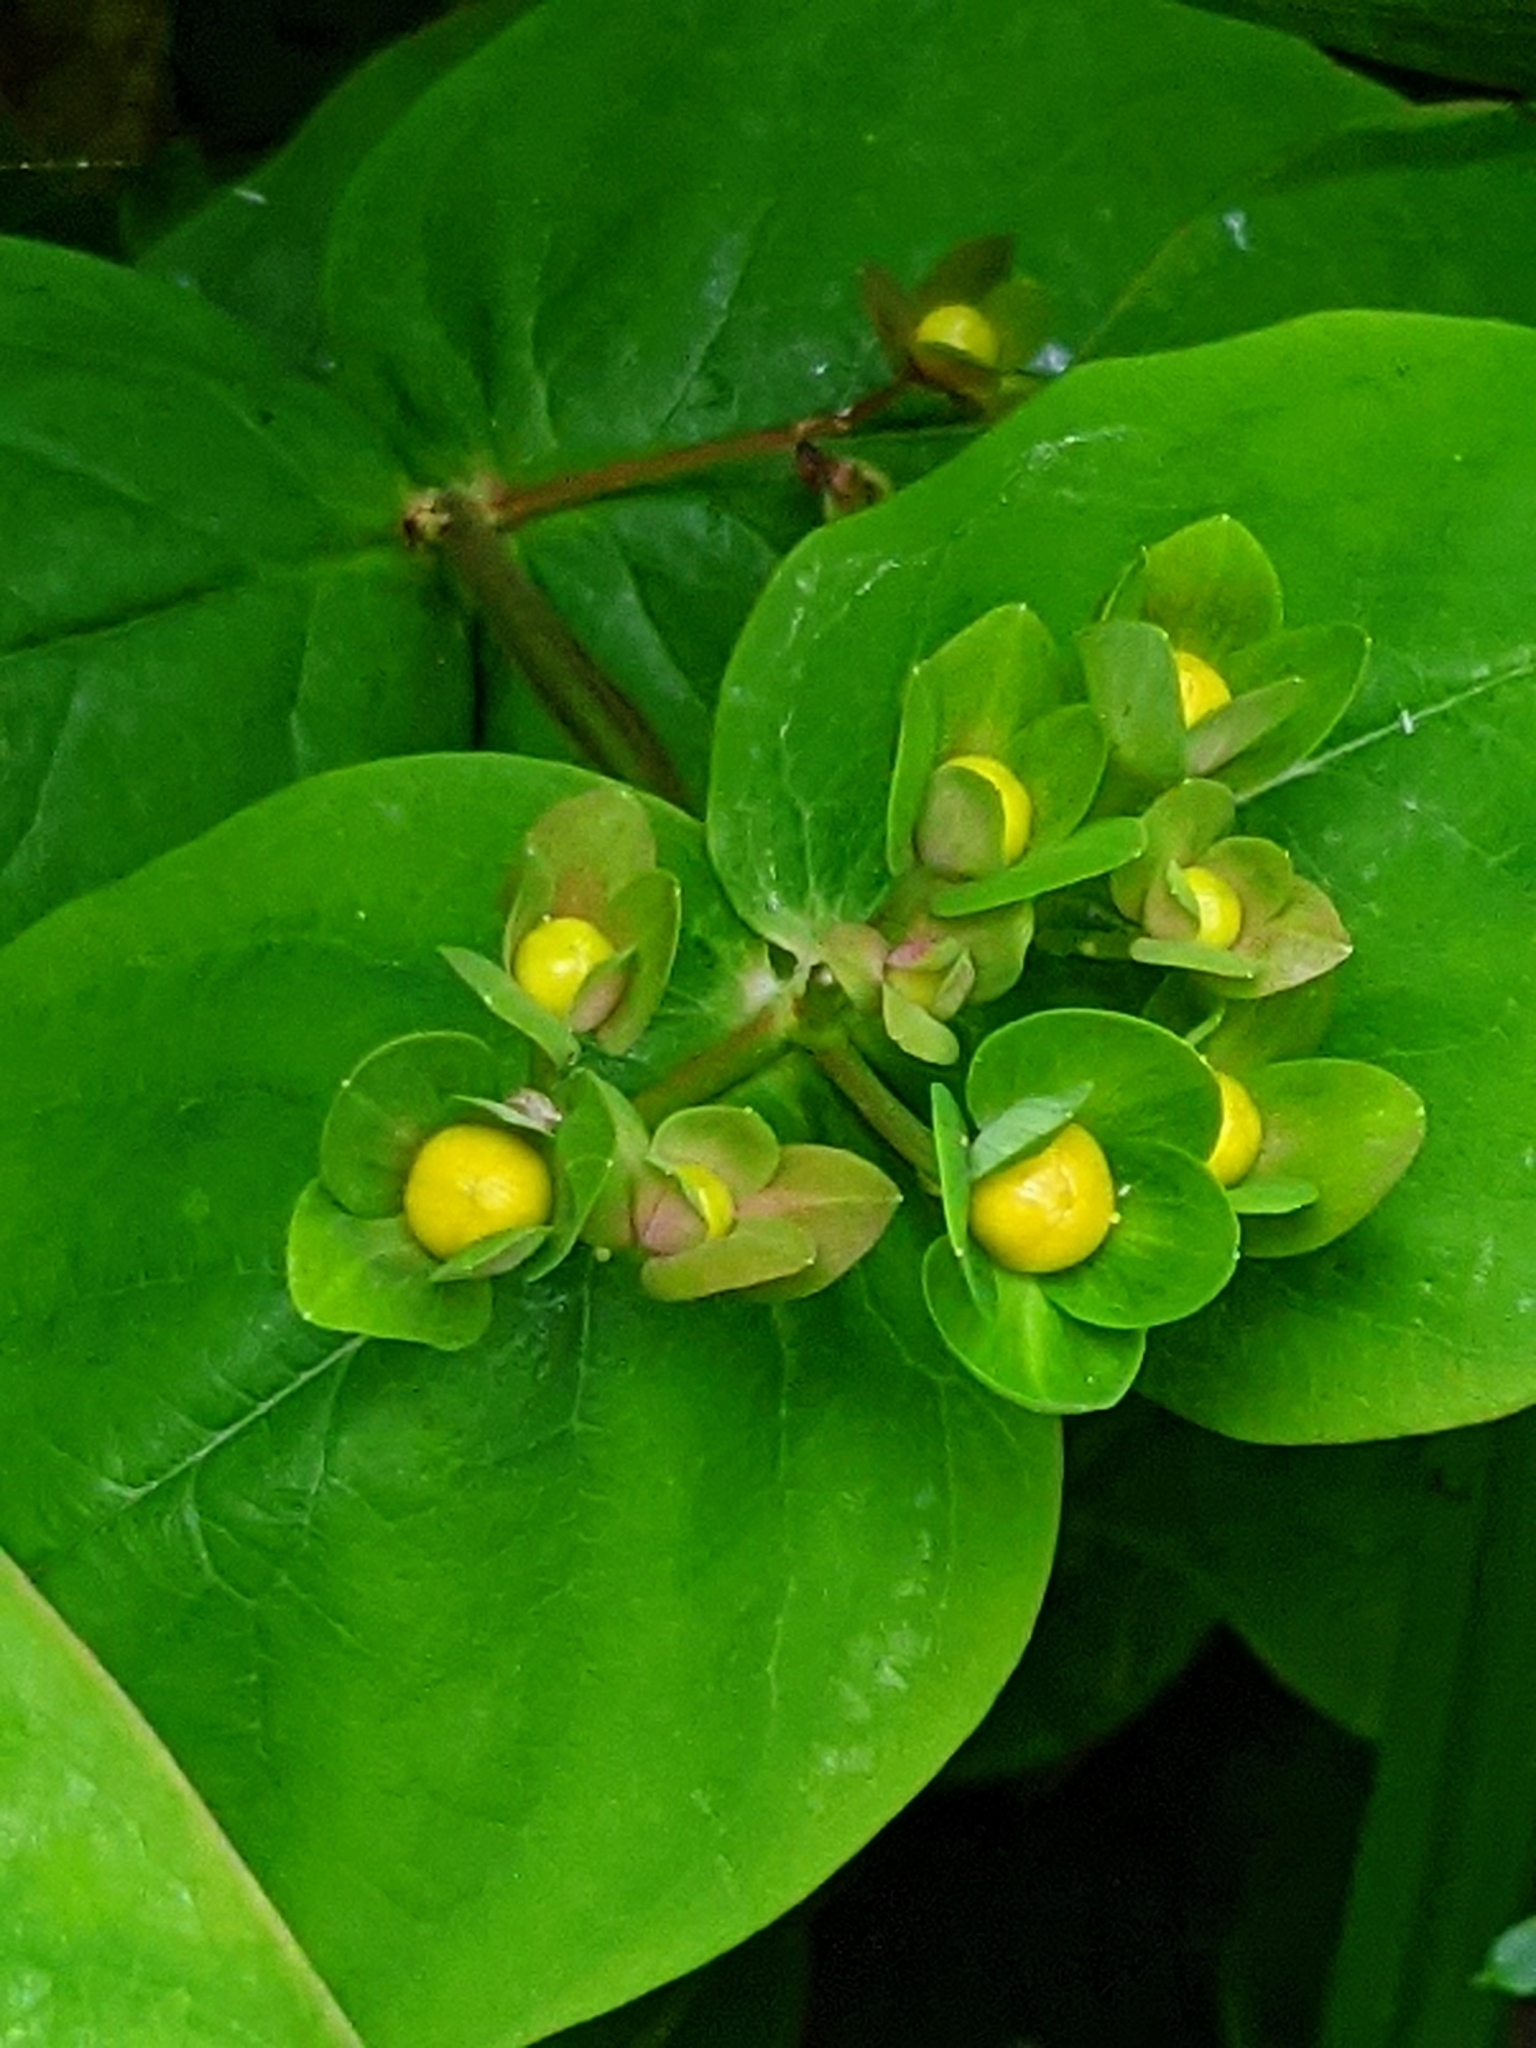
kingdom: Plantae
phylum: Tracheophyta
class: Magnoliopsida
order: Malpighiales
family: Hypericaceae
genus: Hypericum
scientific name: Hypericum androsaemum
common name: Sweet-amber
